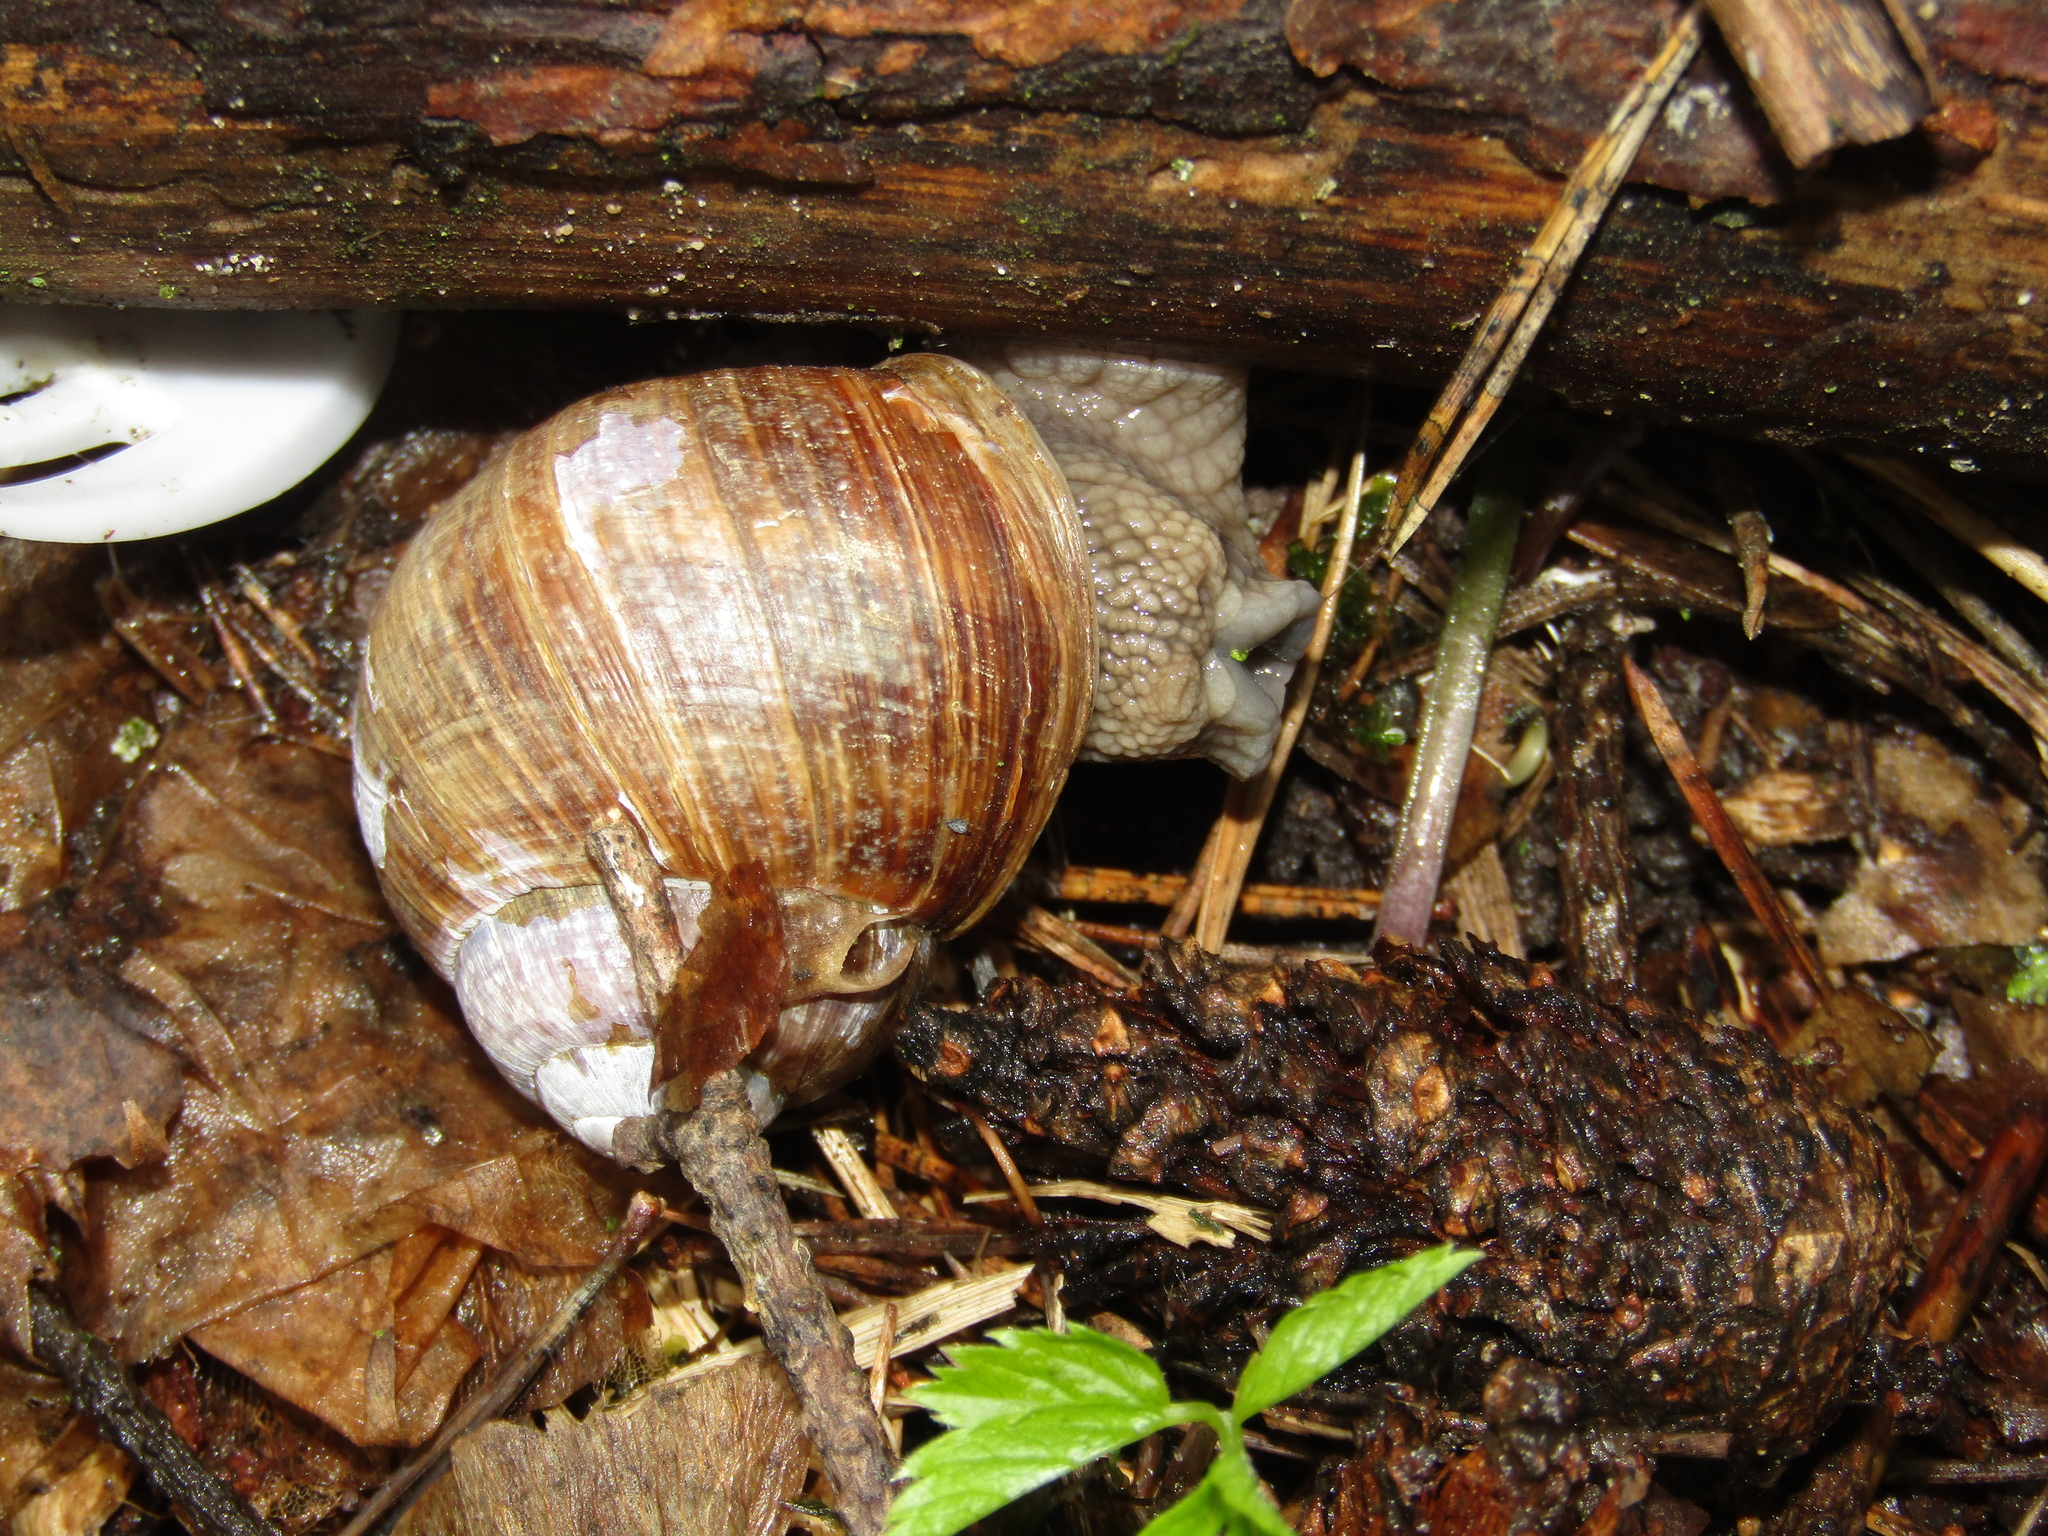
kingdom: Animalia
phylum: Mollusca
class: Gastropoda
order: Stylommatophora
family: Helicidae
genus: Helix
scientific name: Helix pomatia
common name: Roman snail
